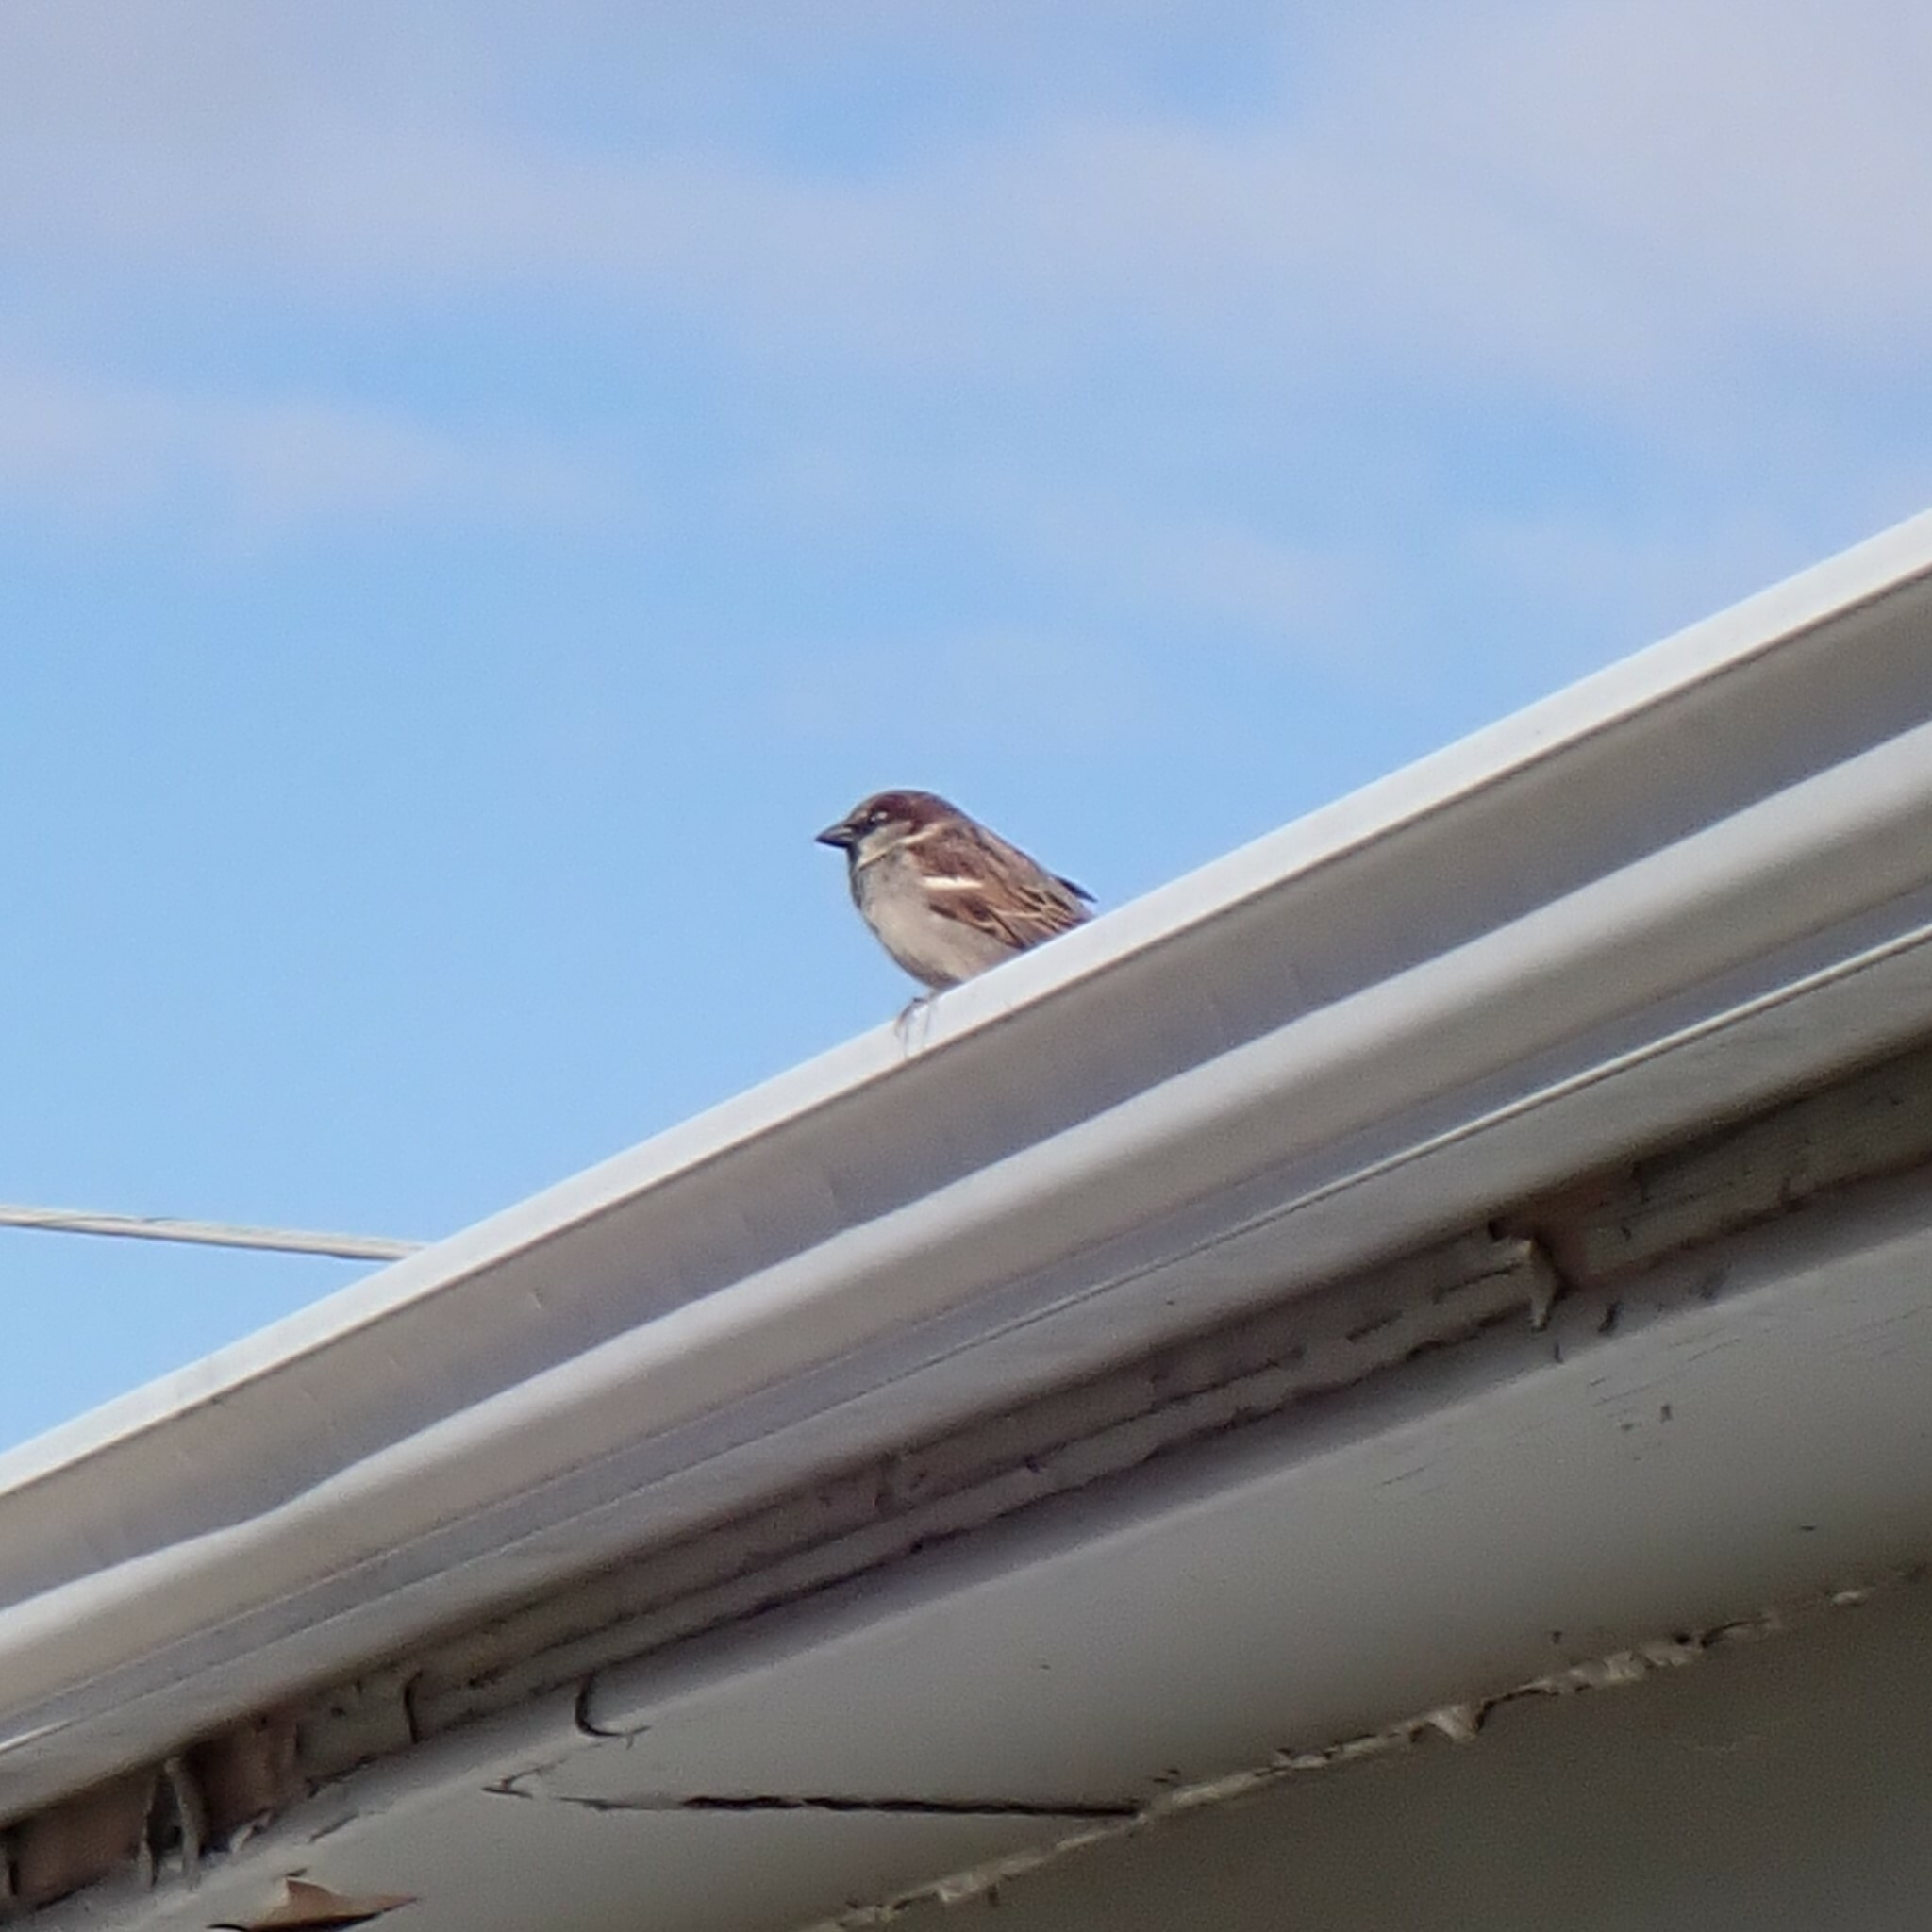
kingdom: Animalia
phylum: Chordata
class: Aves
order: Passeriformes
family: Passeridae
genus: Passer
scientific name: Passer domesticus
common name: House sparrow
